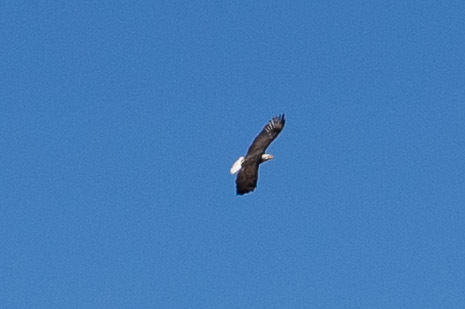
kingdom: Animalia
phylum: Chordata
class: Aves
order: Accipitriformes
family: Accipitridae
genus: Haliaeetus
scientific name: Haliaeetus leucocephalus
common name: Bald eagle
